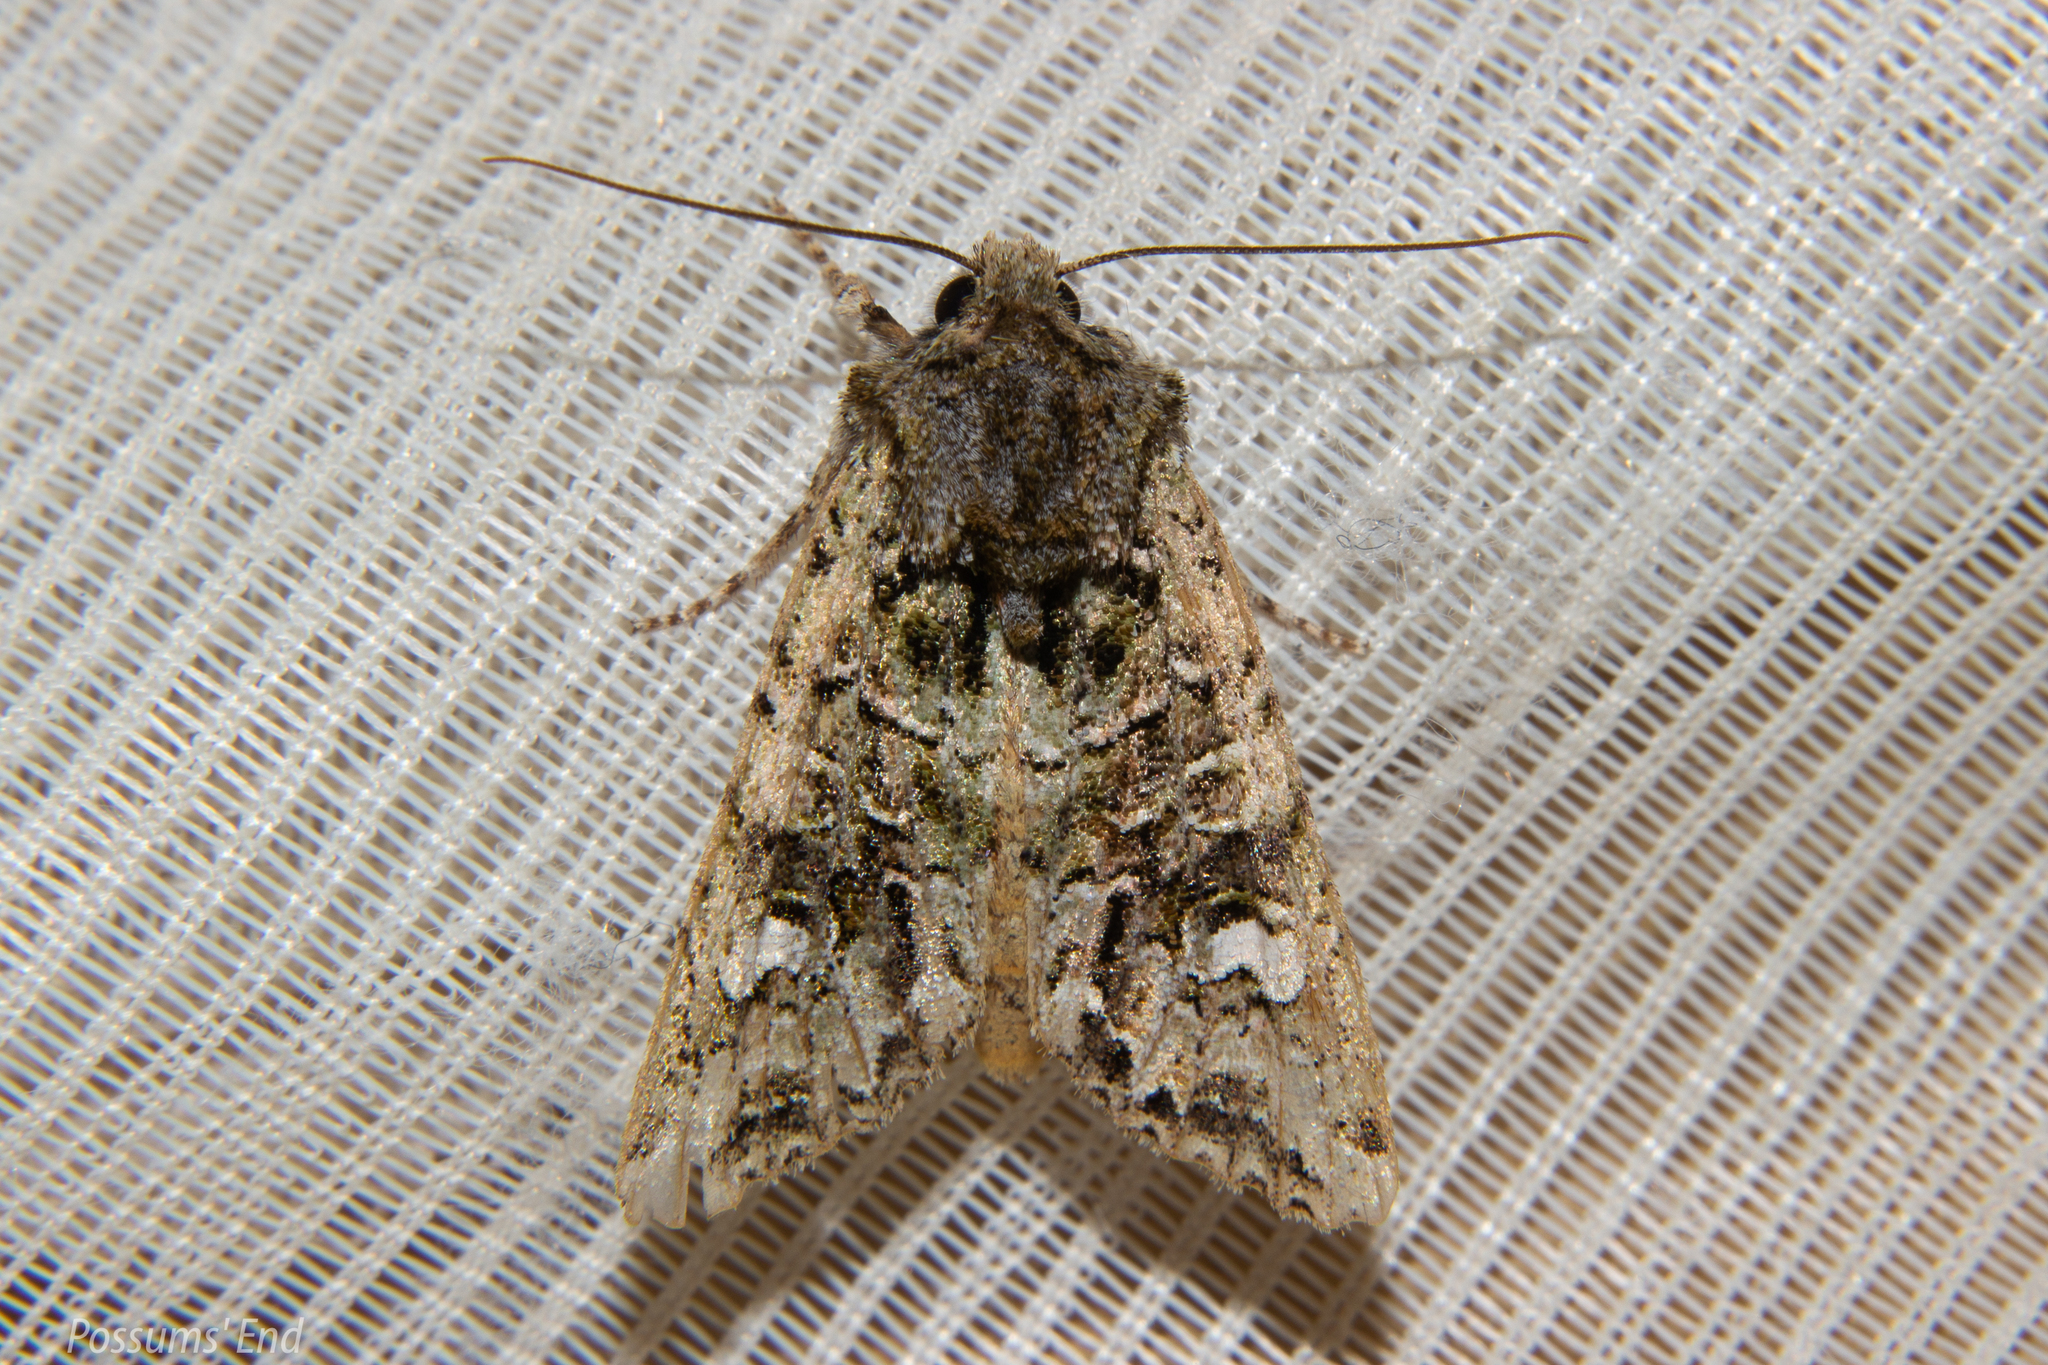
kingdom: Animalia
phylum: Arthropoda
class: Insecta
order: Lepidoptera
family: Noctuidae
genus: Ichneutica
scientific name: Ichneutica
